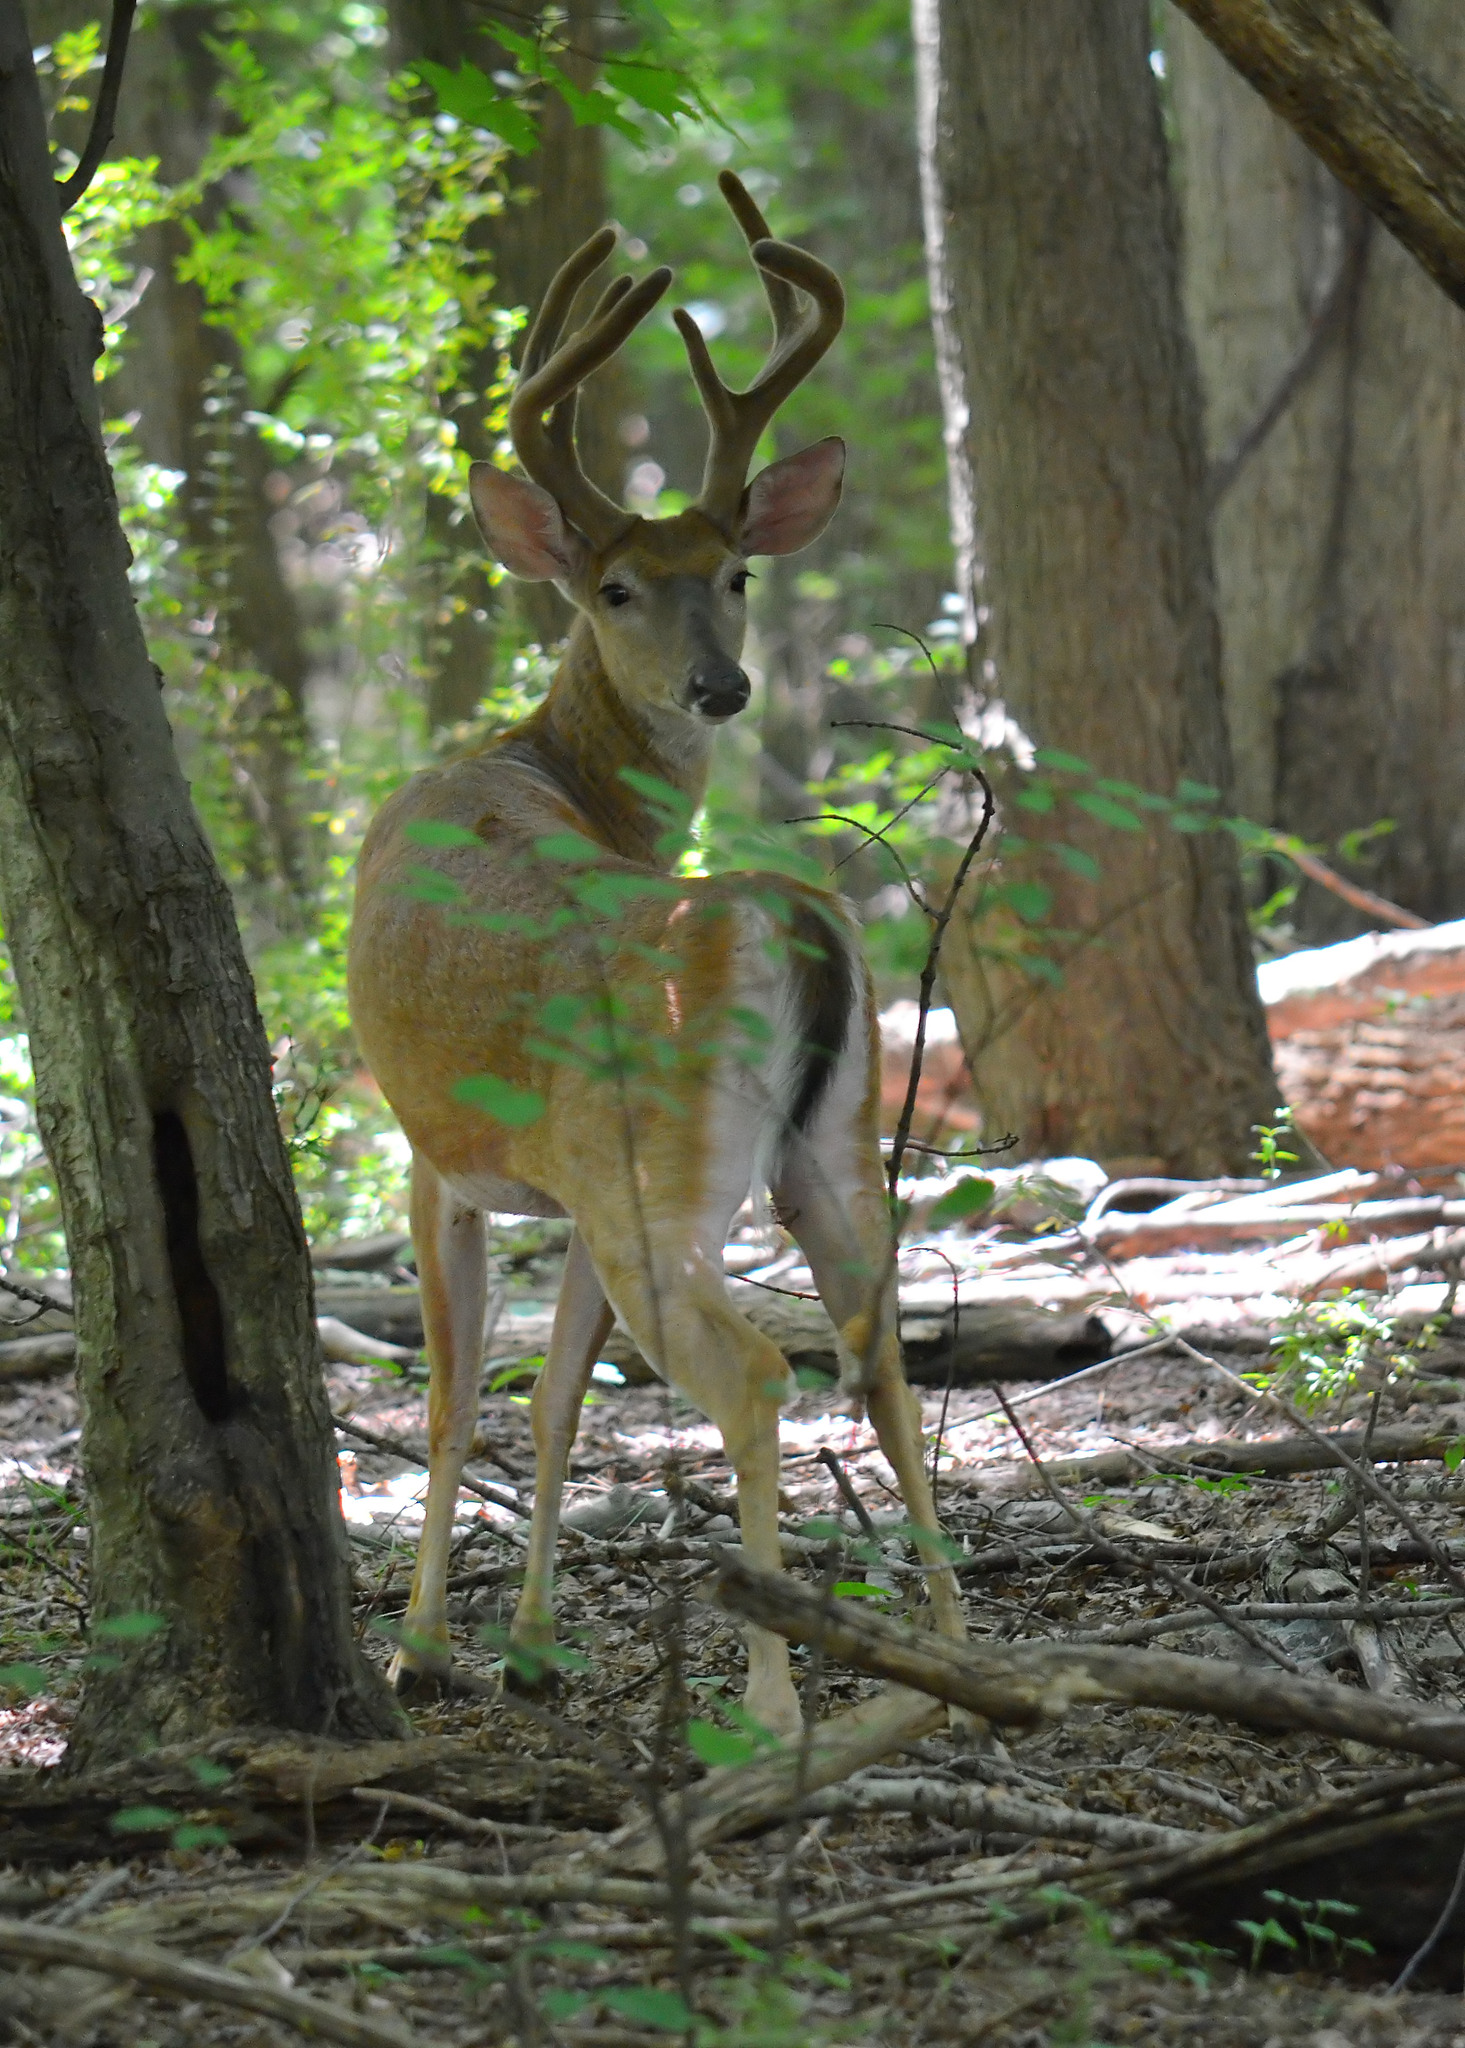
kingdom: Animalia
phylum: Chordata
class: Mammalia
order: Artiodactyla
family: Cervidae
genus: Odocoileus
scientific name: Odocoileus virginianus
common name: White-tailed deer
